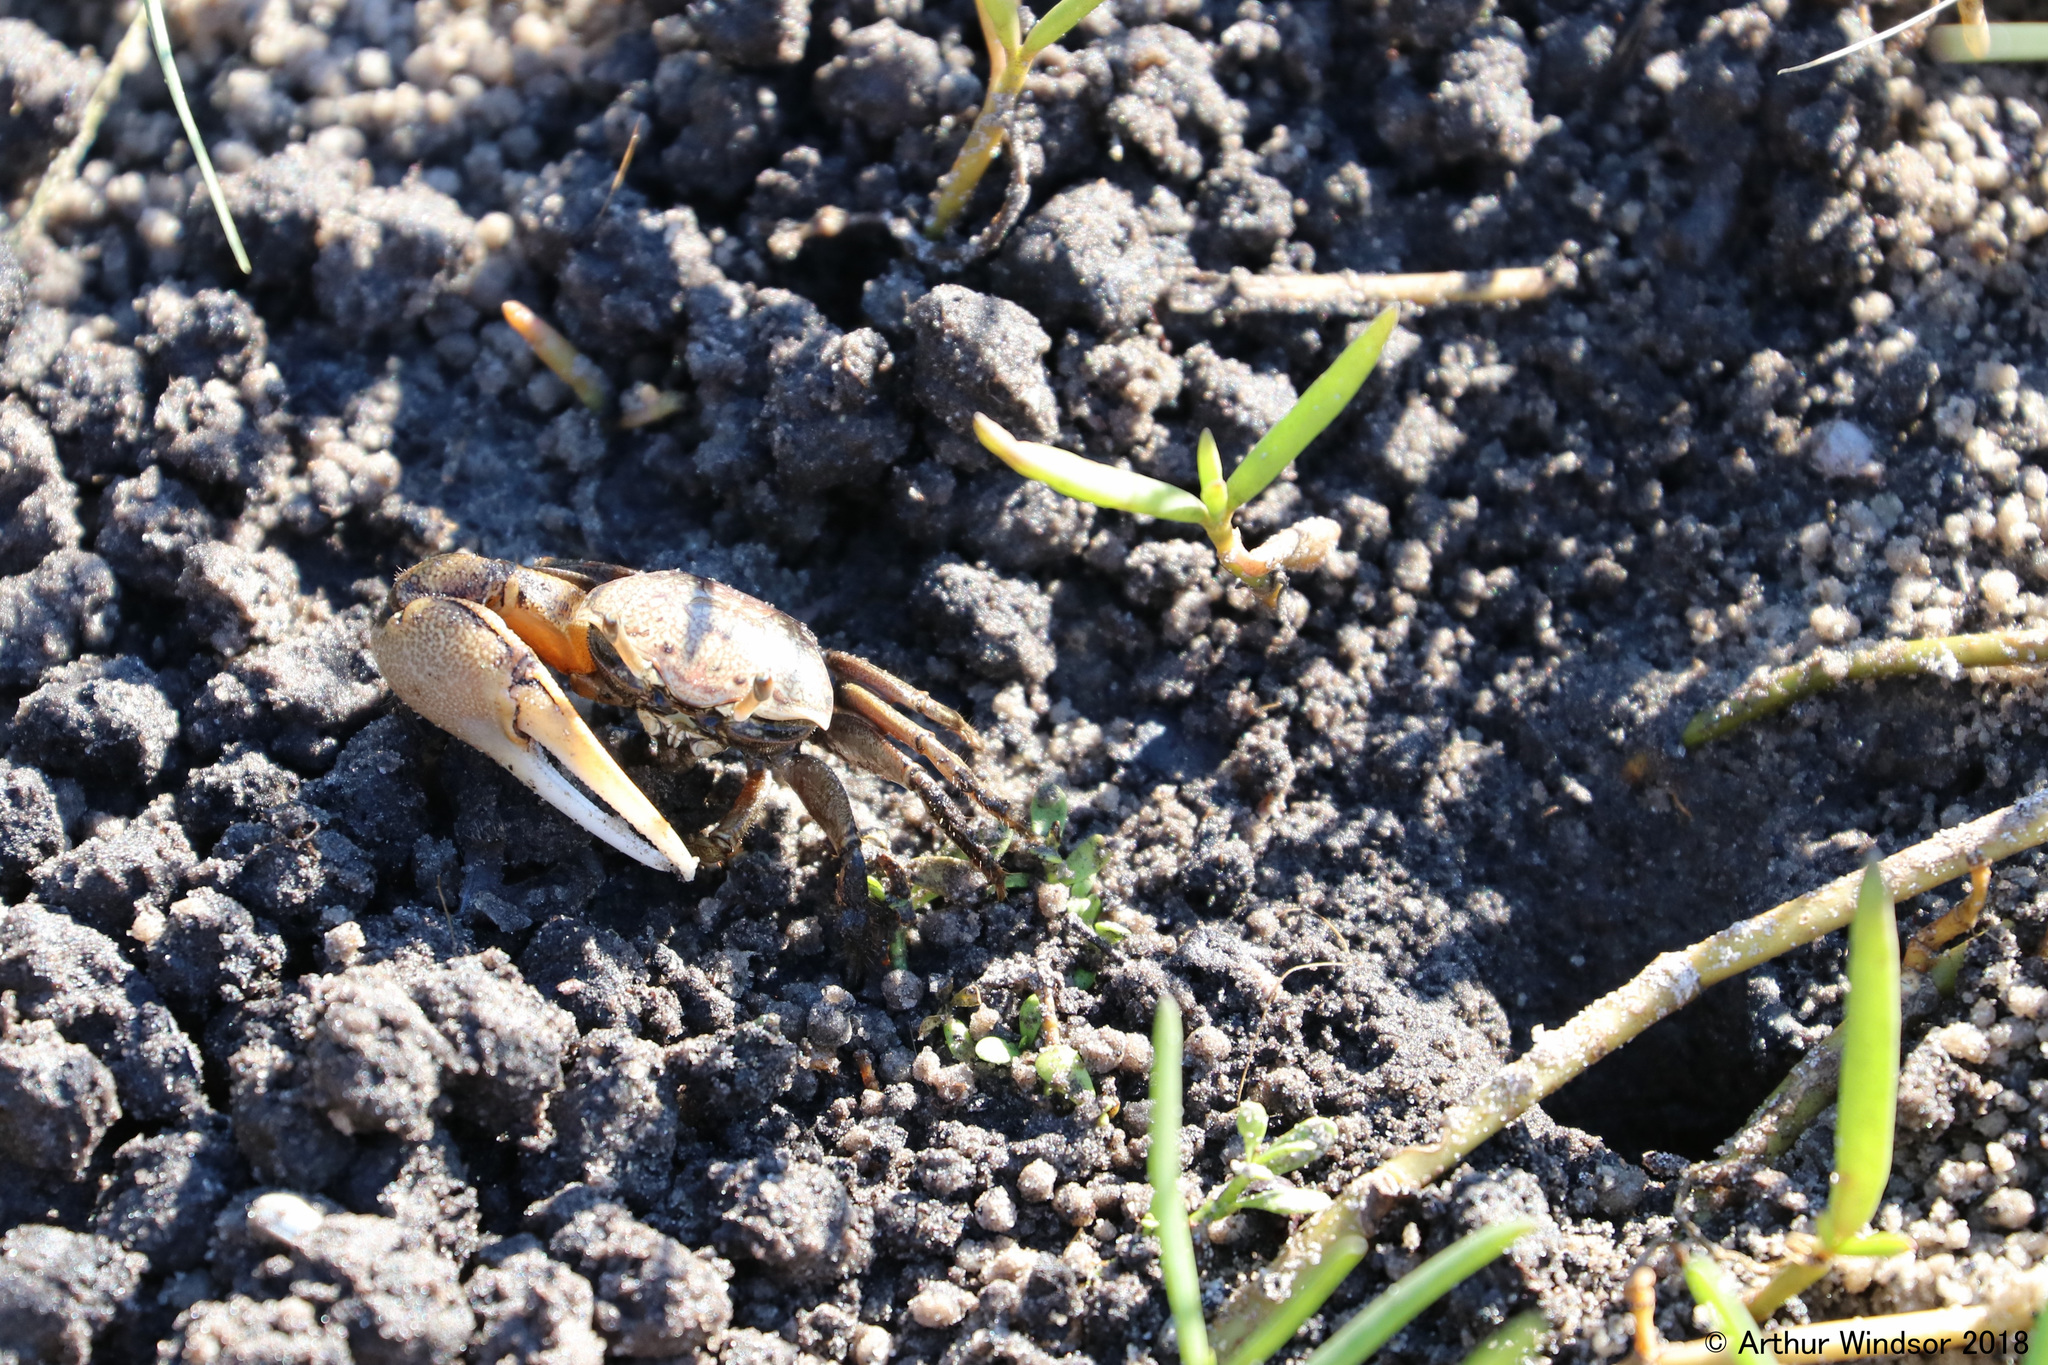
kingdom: Animalia
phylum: Arthropoda
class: Malacostraca
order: Decapoda
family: Ocypodidae
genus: Leptuca
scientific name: Leptuca pugilator
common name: Atlantic sand fiddler crab
